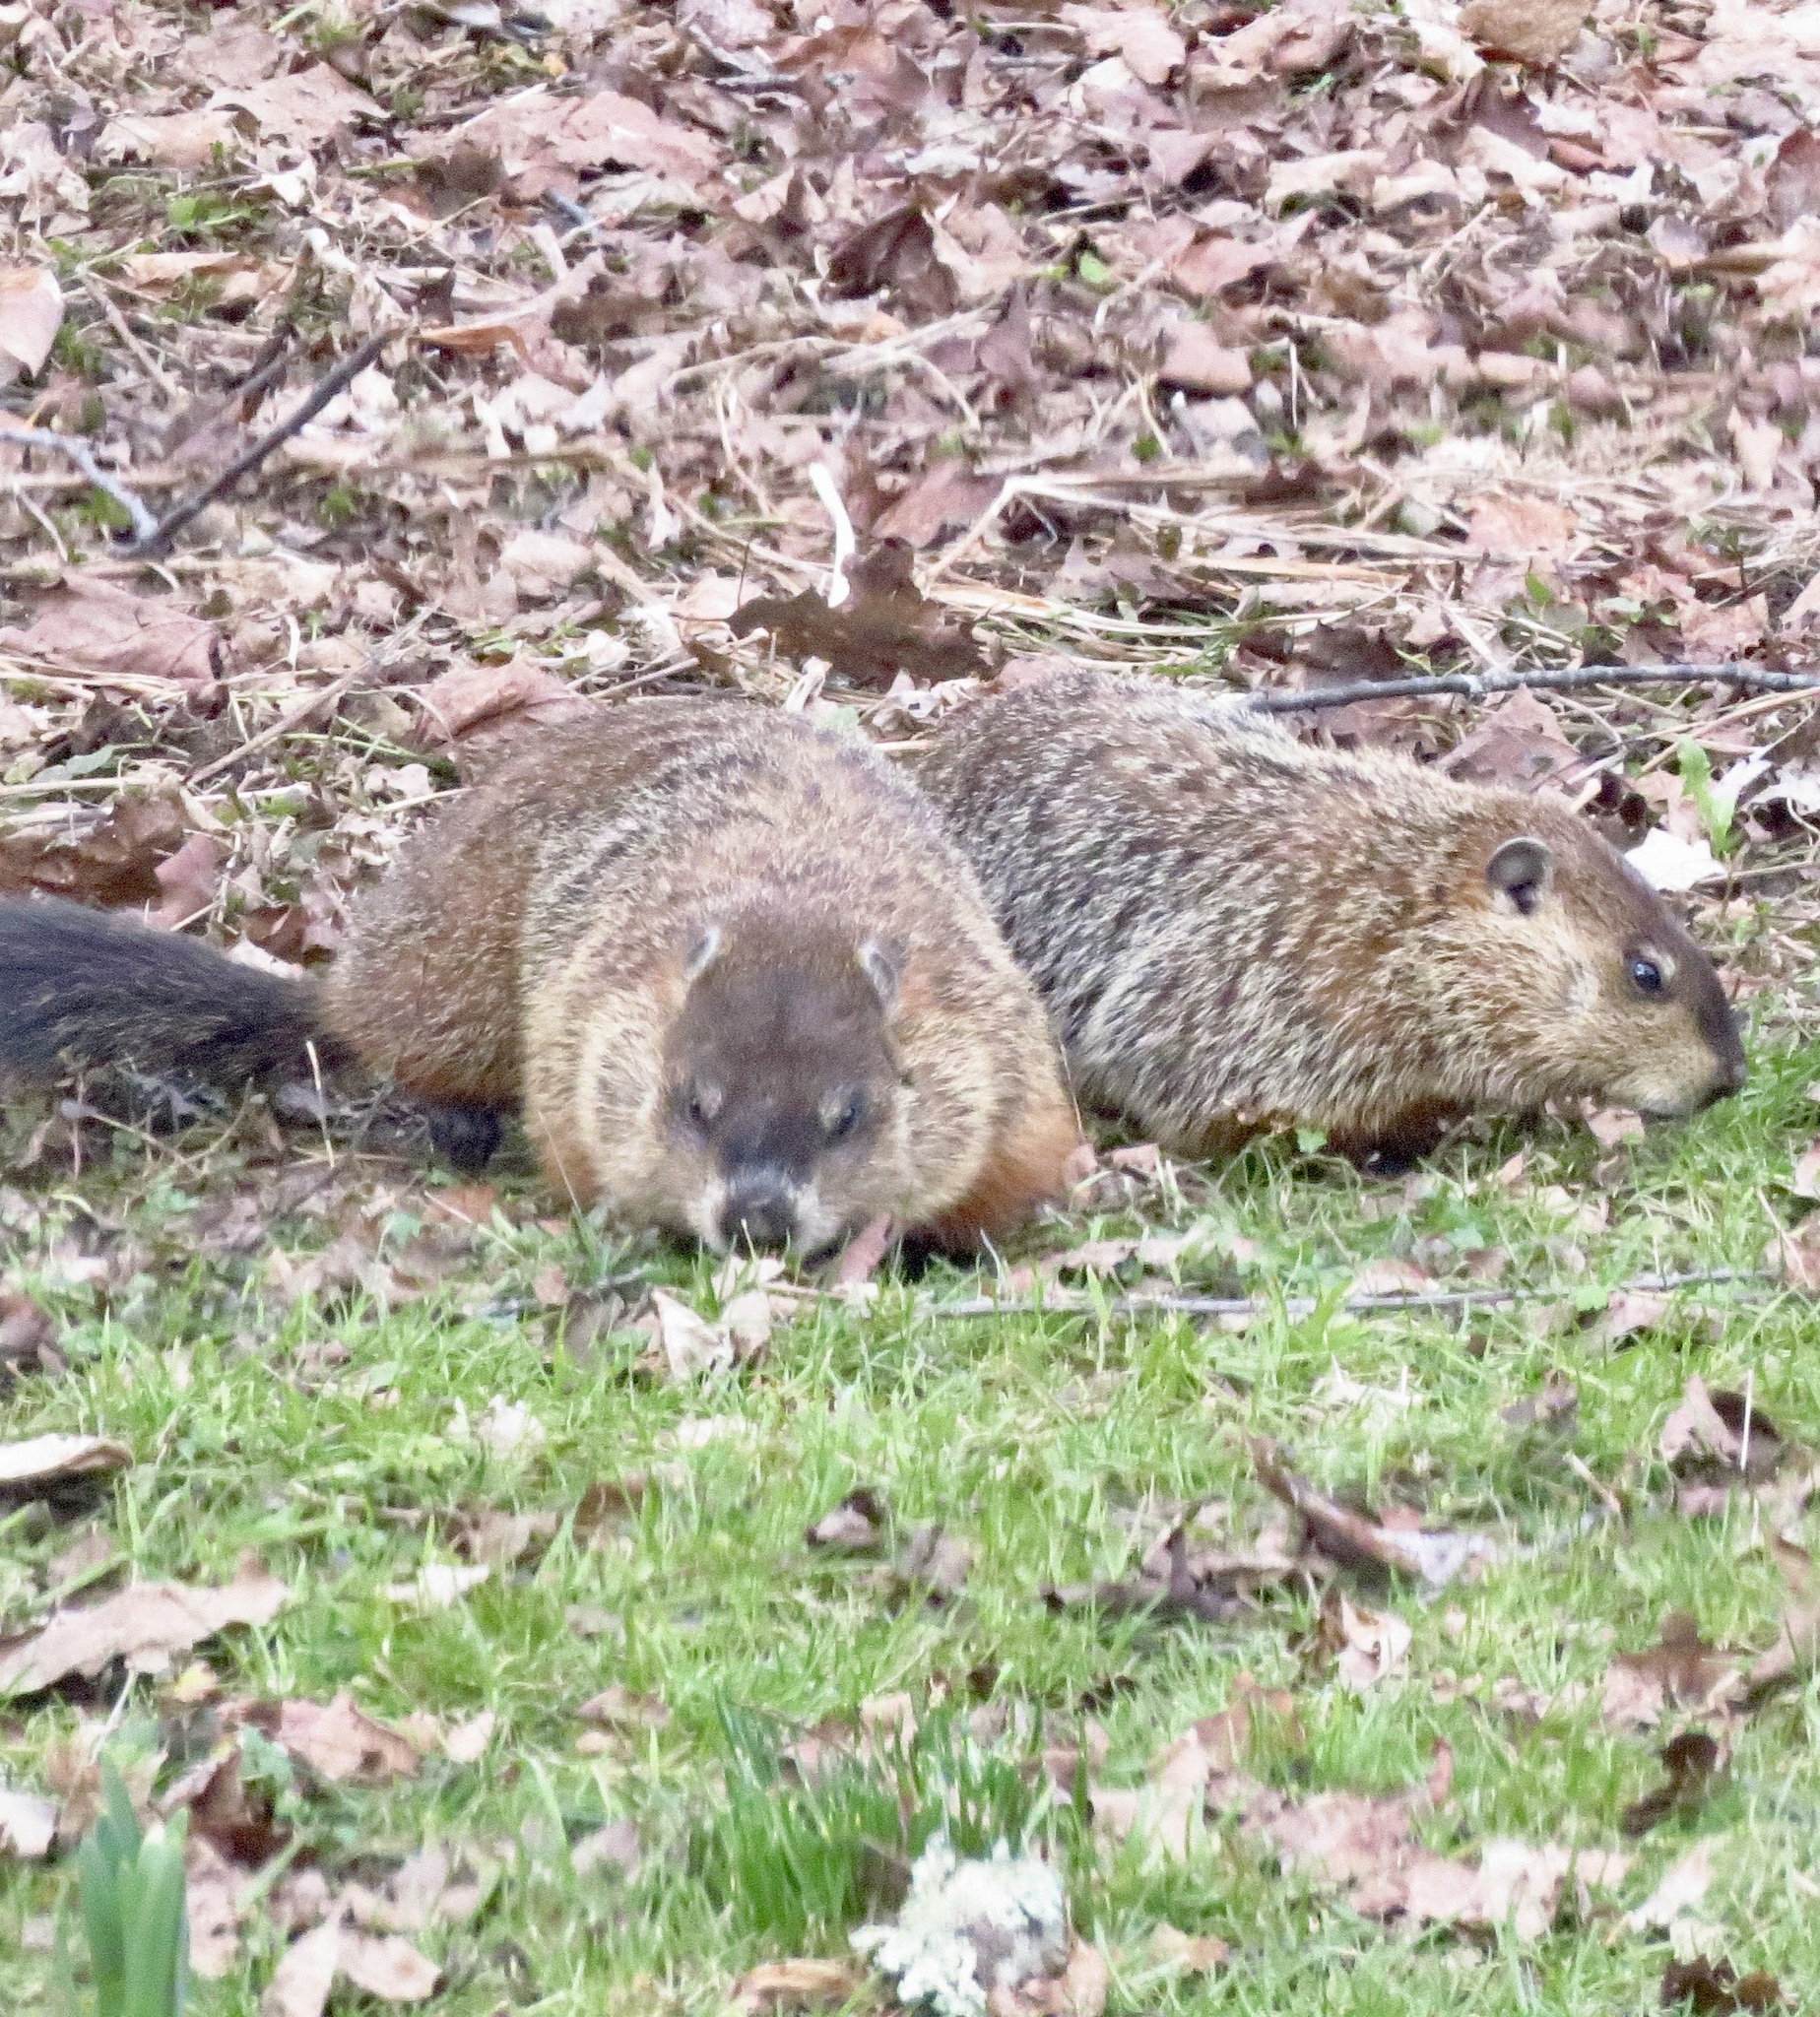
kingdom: Animalia
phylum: Chordata
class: Mammalia
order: Rodentia
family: Sciuridae
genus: Marmota
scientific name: Marmota monax
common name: Groundhog
